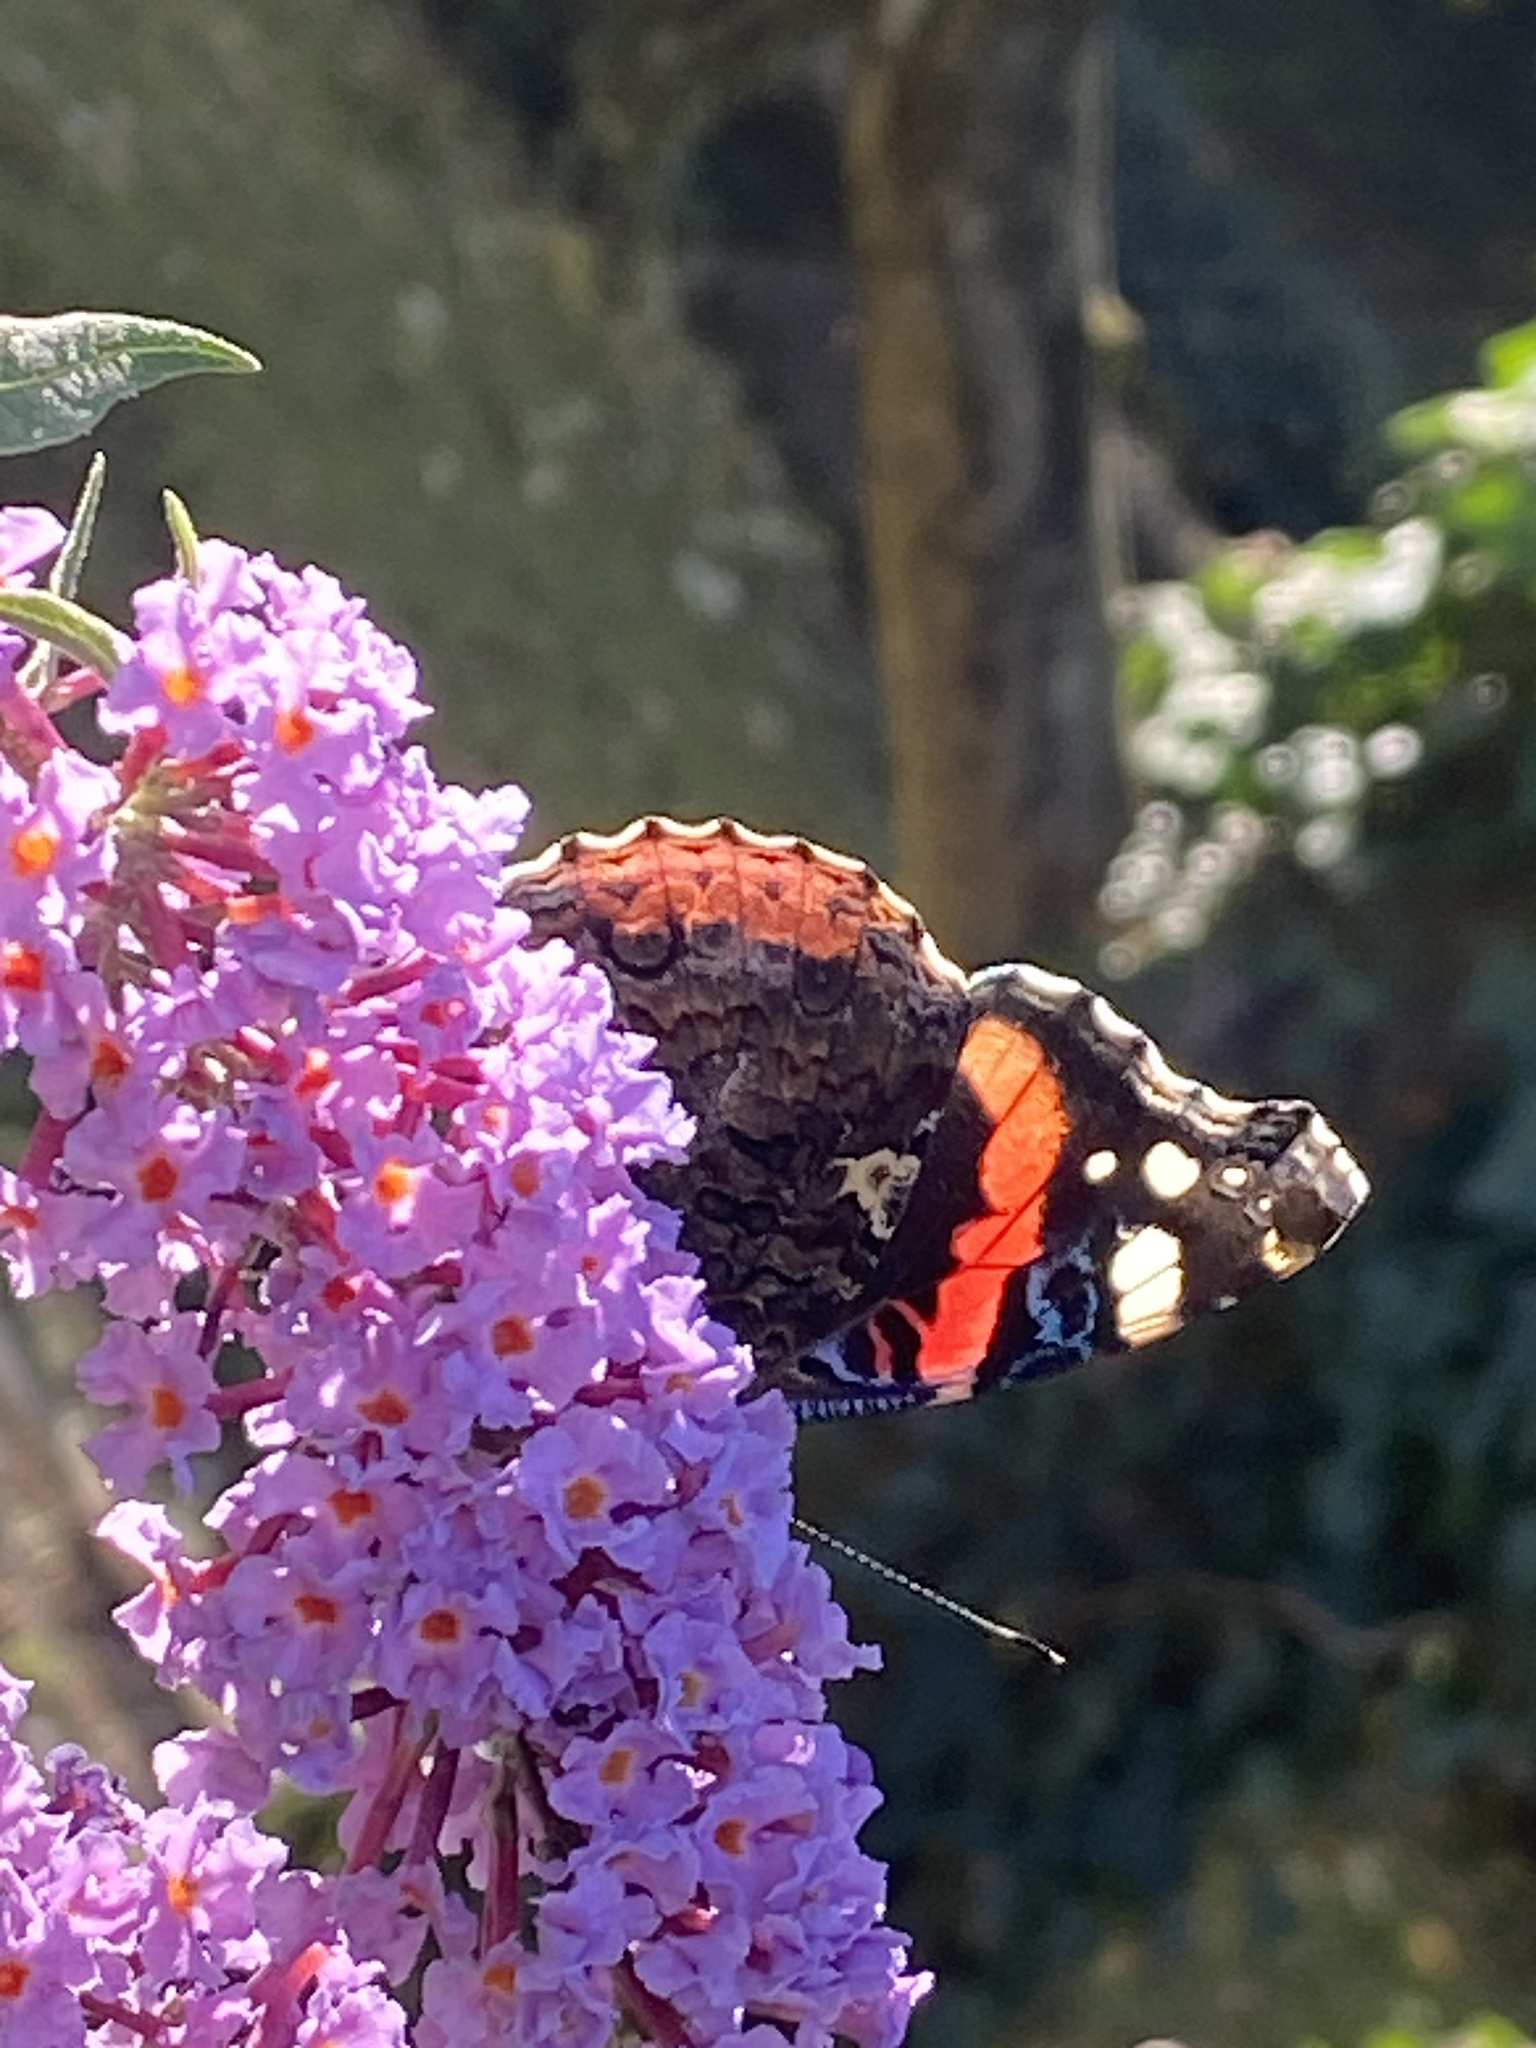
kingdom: Animalia
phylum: Arthropoda
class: Insecta
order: Lepidoptera
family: Nymphalidae
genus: Vanessa
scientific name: Vanessa atalanta
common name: Red admiral
